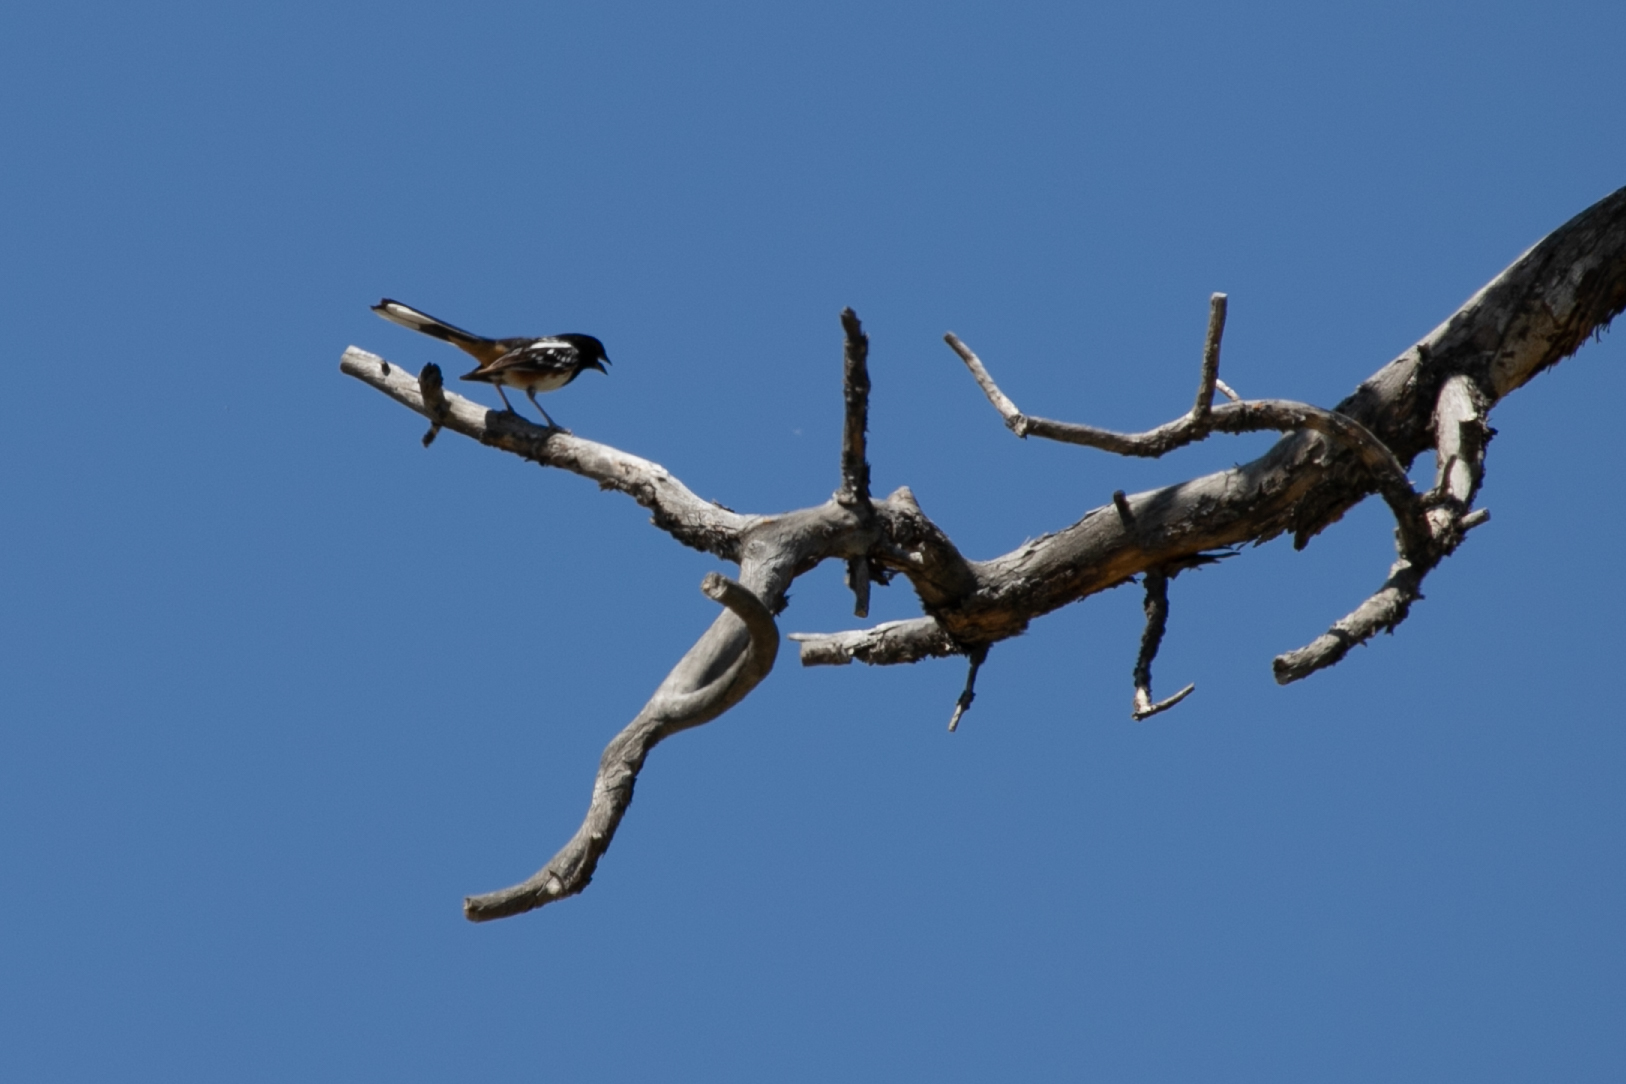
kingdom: Animalia
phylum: Chordata
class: Aves
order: Passeriformes
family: Passerellidae
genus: Pipilo
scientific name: Pipilo maculatus
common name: Spotted towhee
